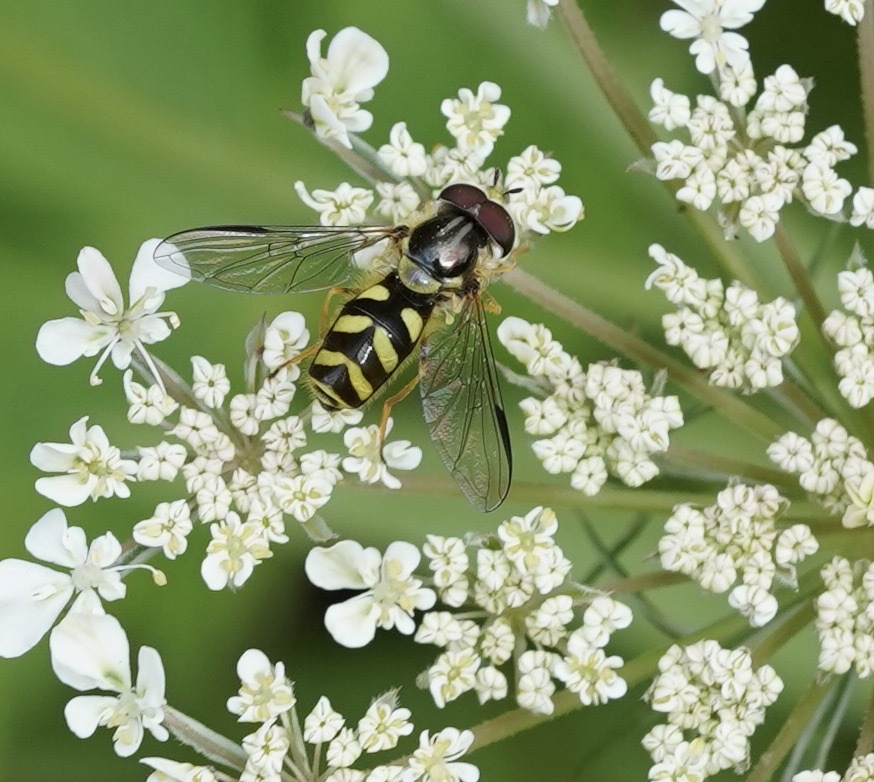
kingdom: Animalia
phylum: Arthropoda
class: Insecta
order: Diptera
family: Syrphidae
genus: Dasysyrphus
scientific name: Dasysyrphus albostriatus
